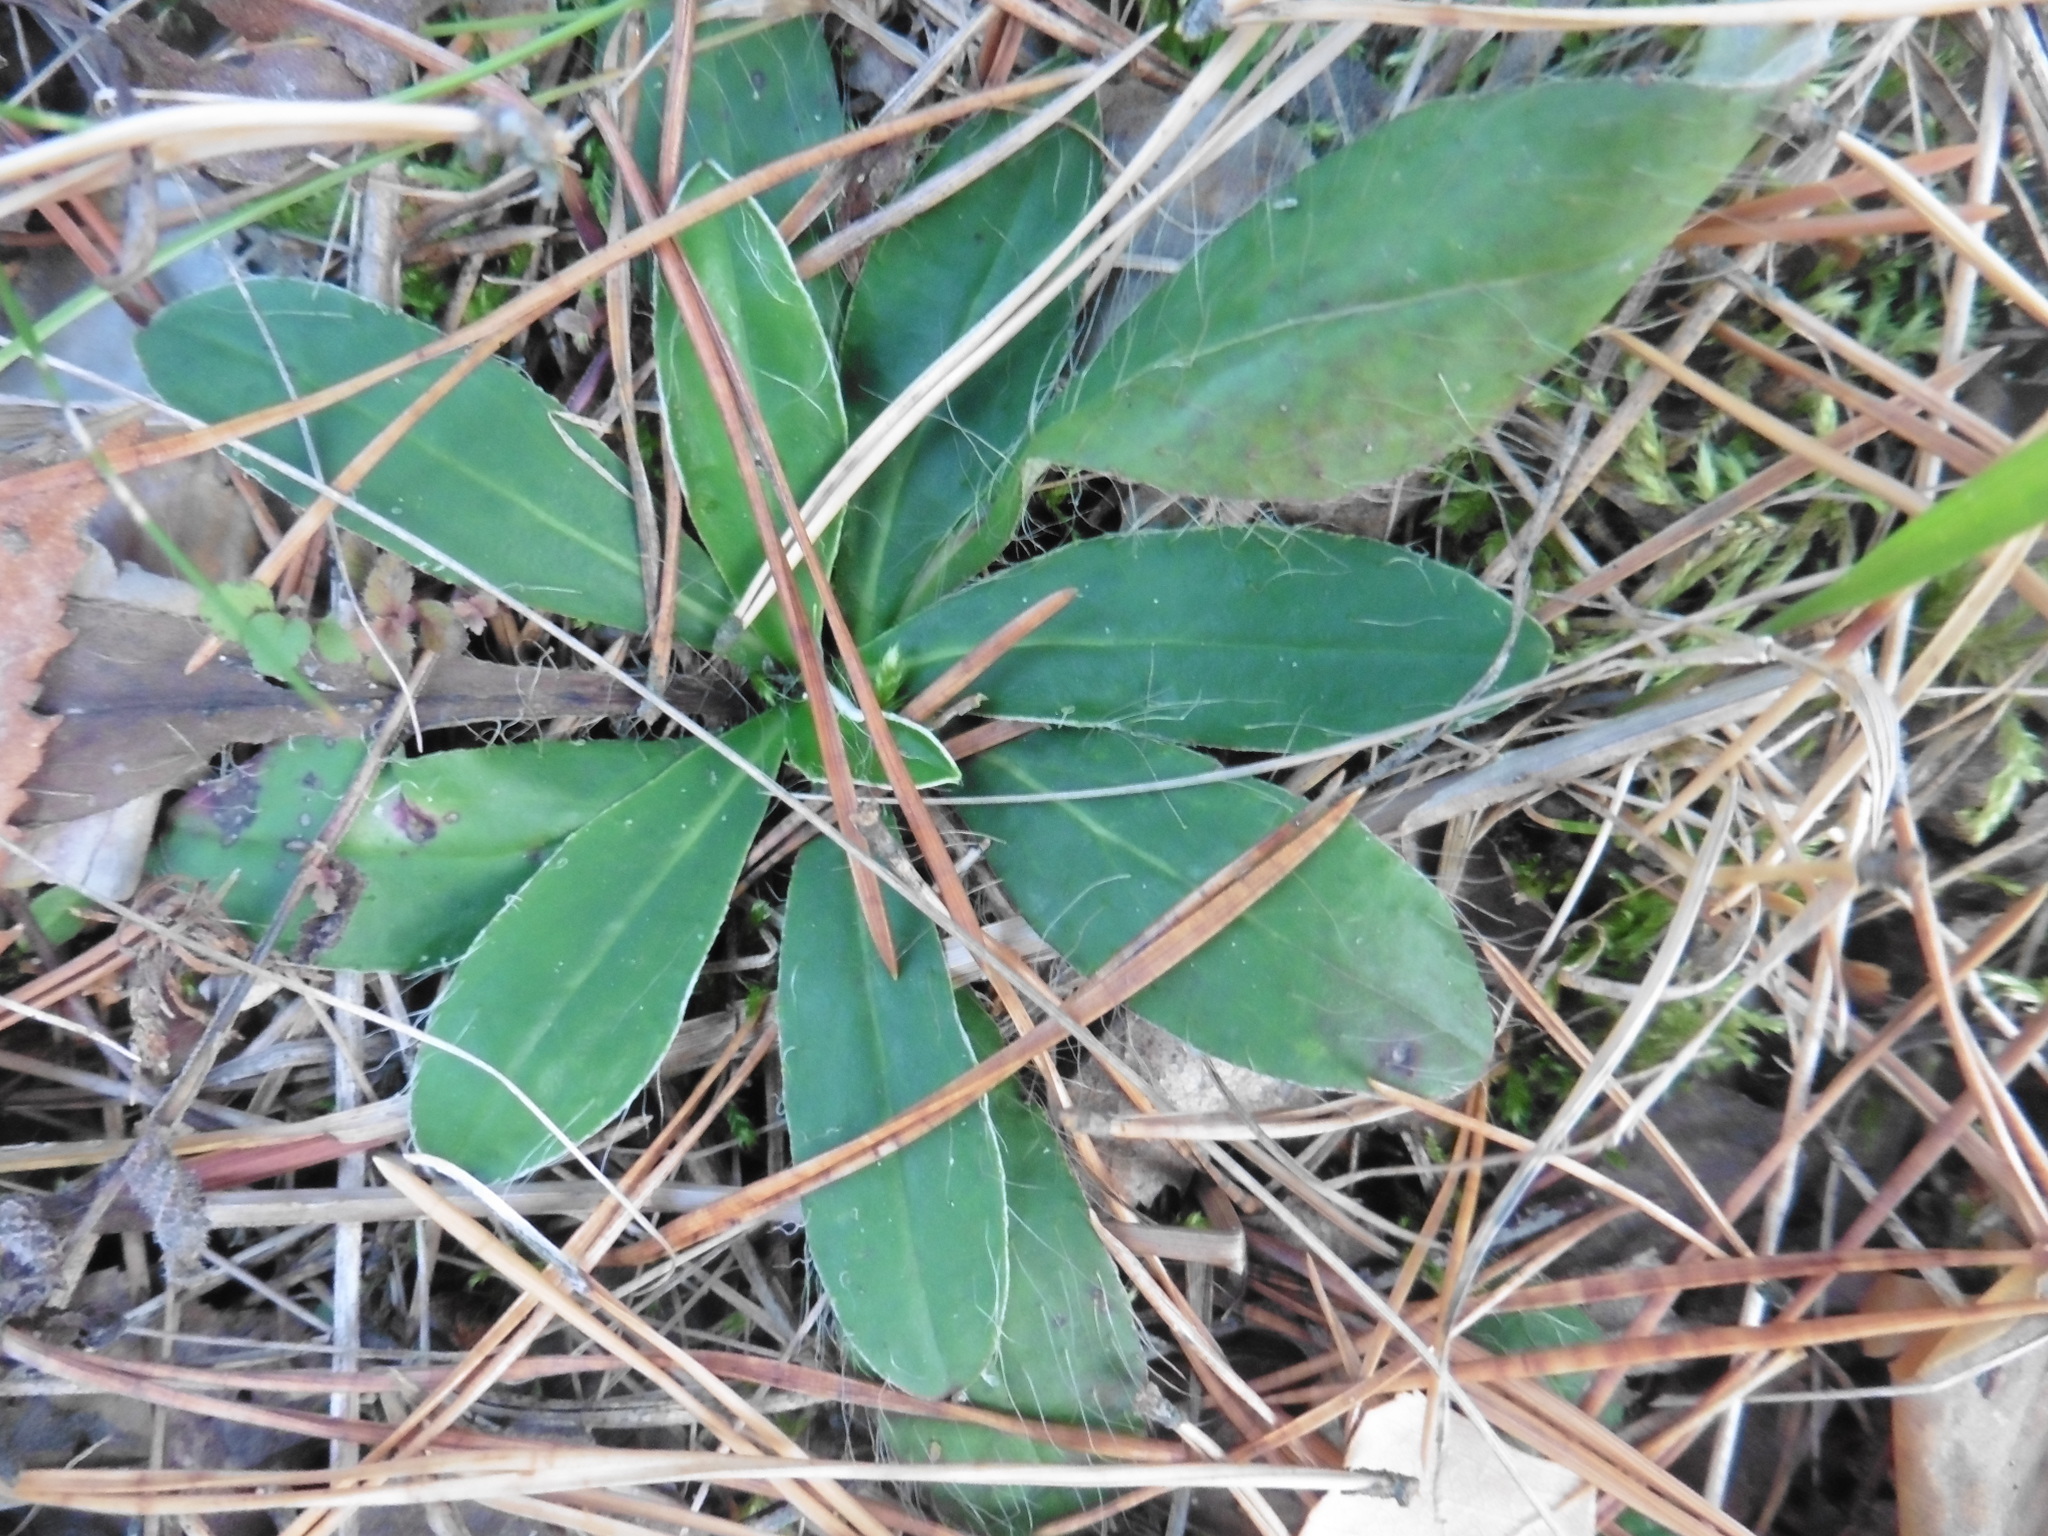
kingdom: Plantae
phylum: Tracheophyta
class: Magnoliopsida
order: Asterales
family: Asteraceae
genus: Pilosella
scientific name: Pilosella officinarum
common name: Mouse-ear hawkweed
